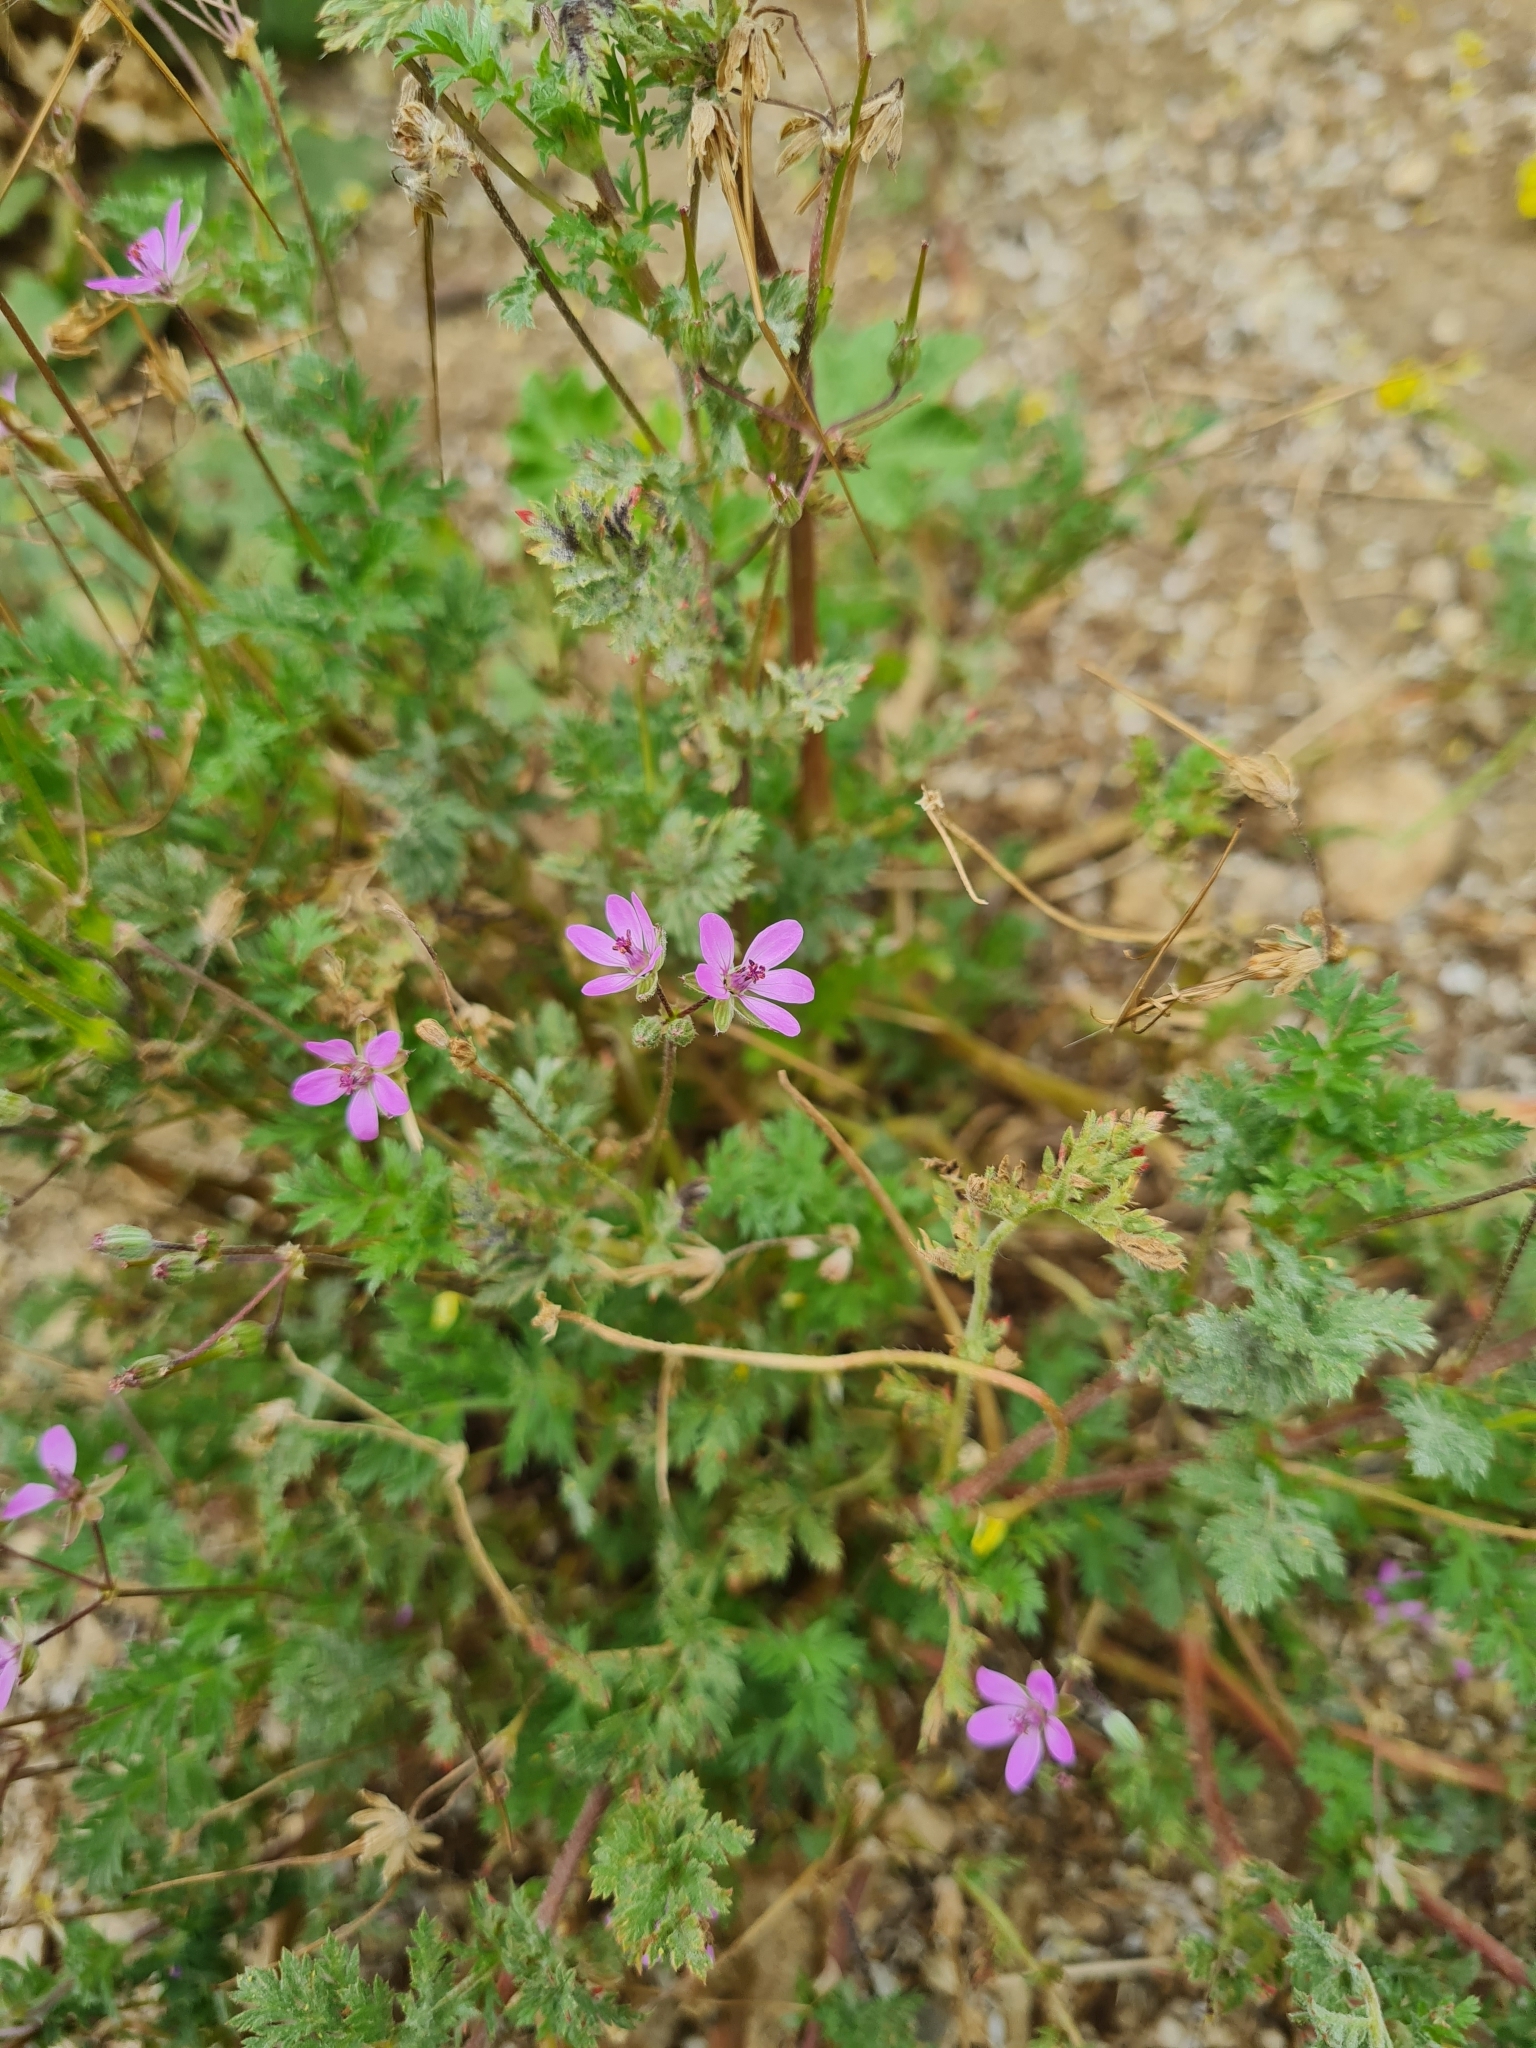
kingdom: Plantae
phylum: Tracheophyta
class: Magnoliopsida
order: Geraniales
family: Geraniaceae
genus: Erodium
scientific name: Erodium cicutarium
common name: Common stork's-bill
